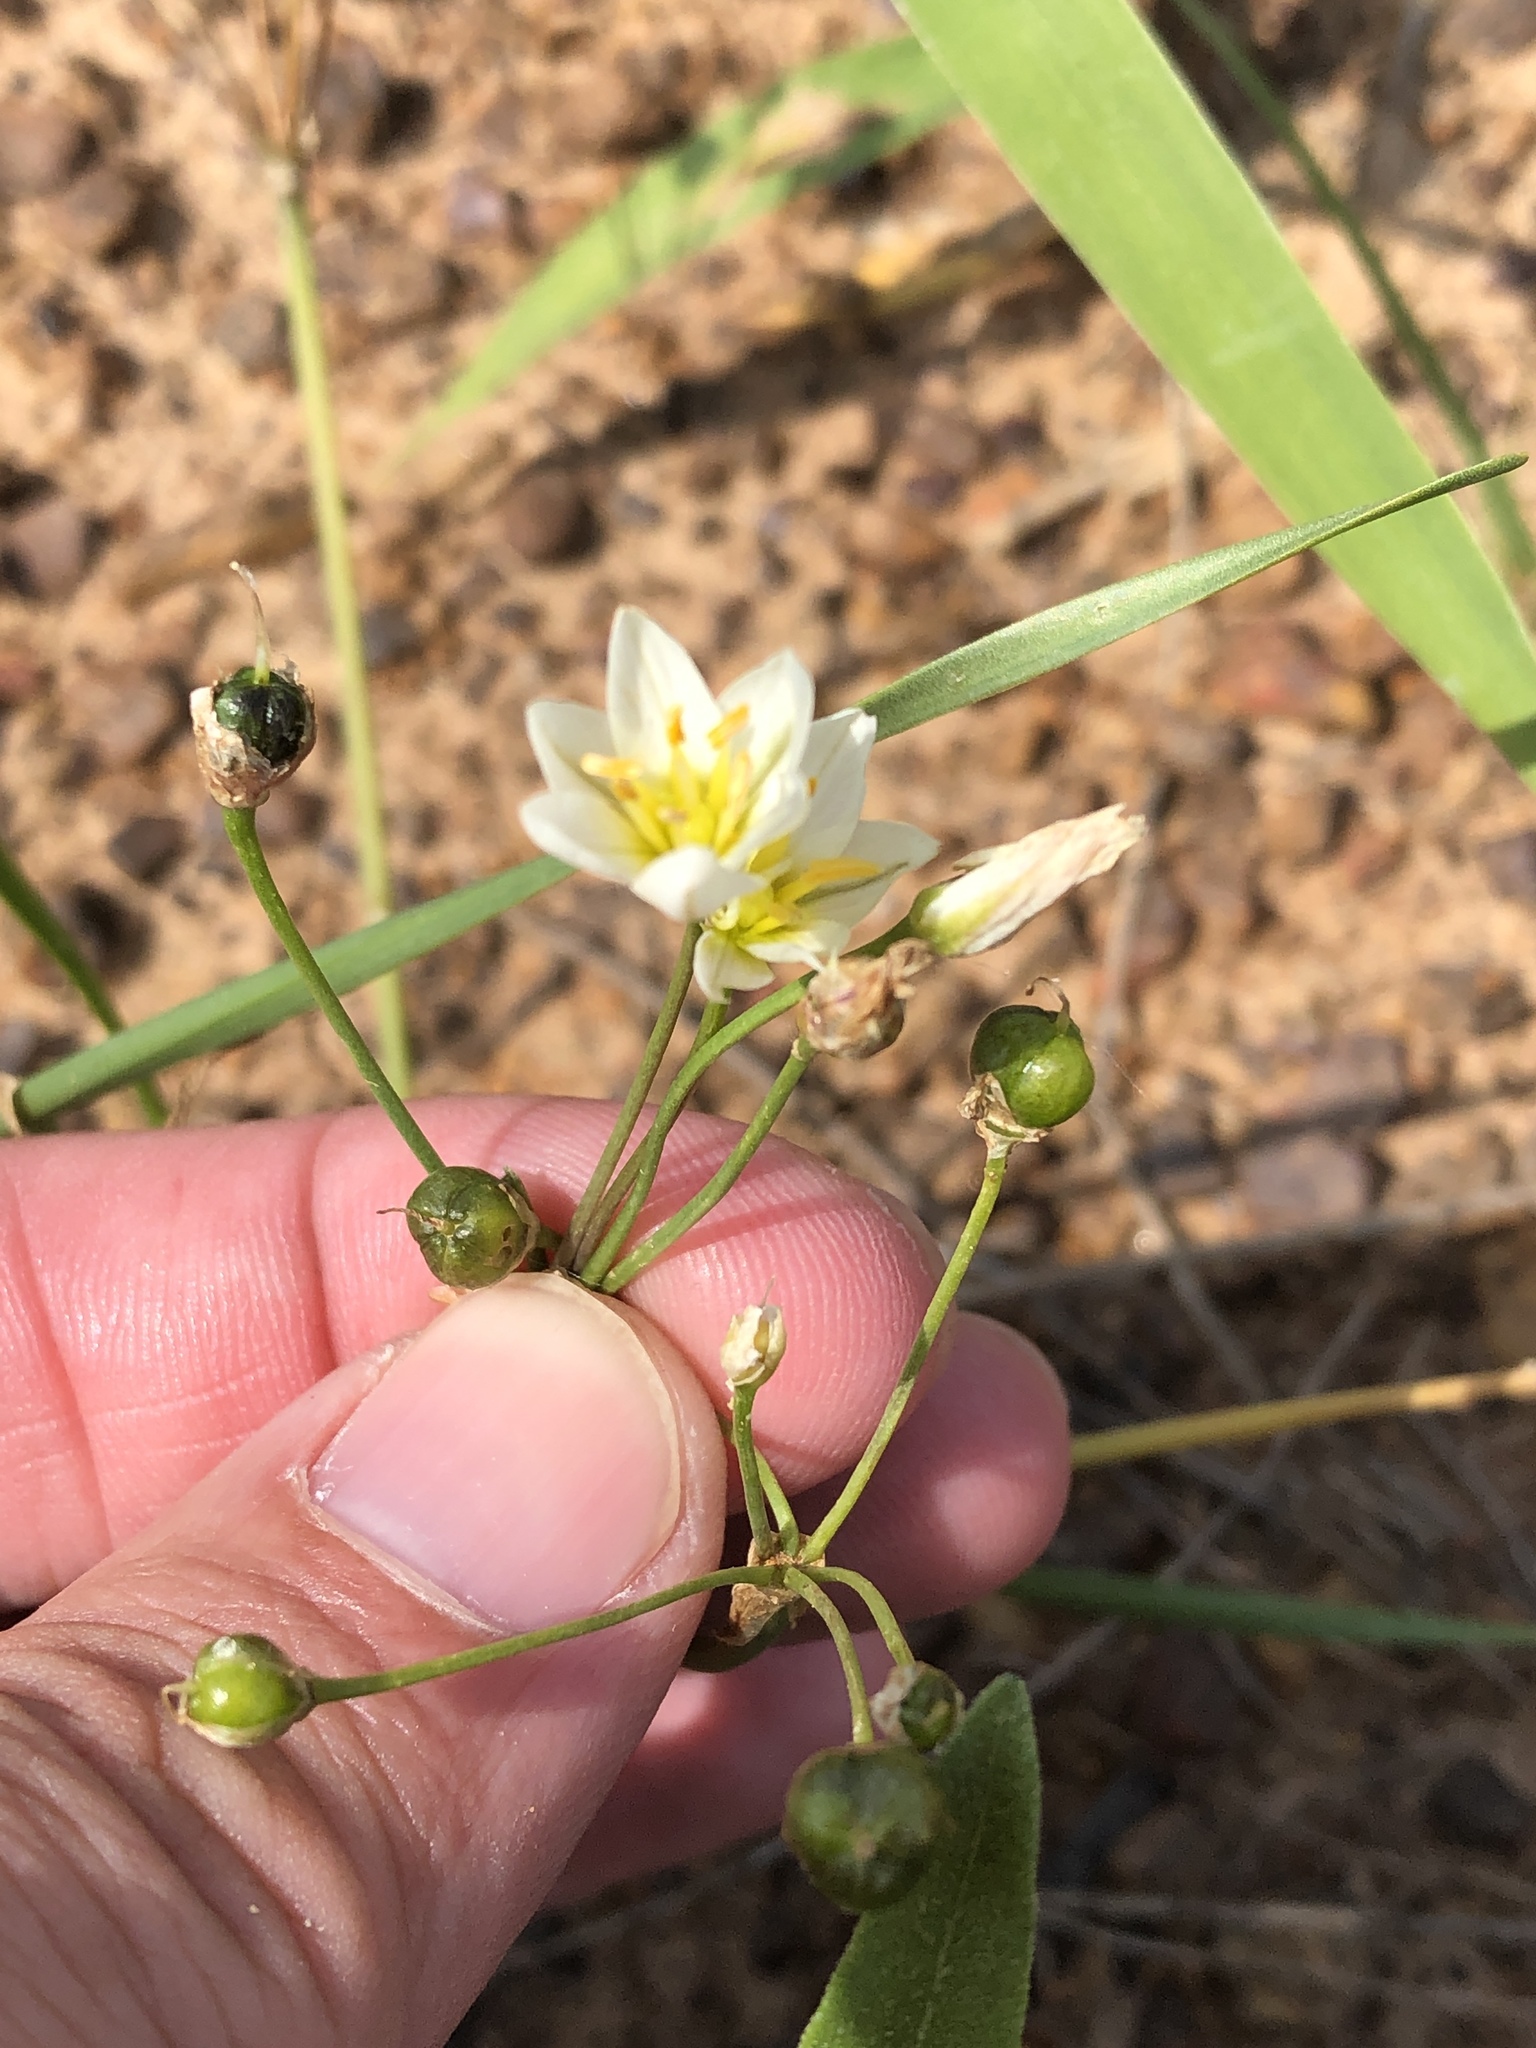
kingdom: Plantae
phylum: Tracheophyta
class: Liliopsida
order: Asparagales
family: Amaryllidaceae
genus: Nothoscordum
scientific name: Nothoscordum bivalve
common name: Crow-poison
